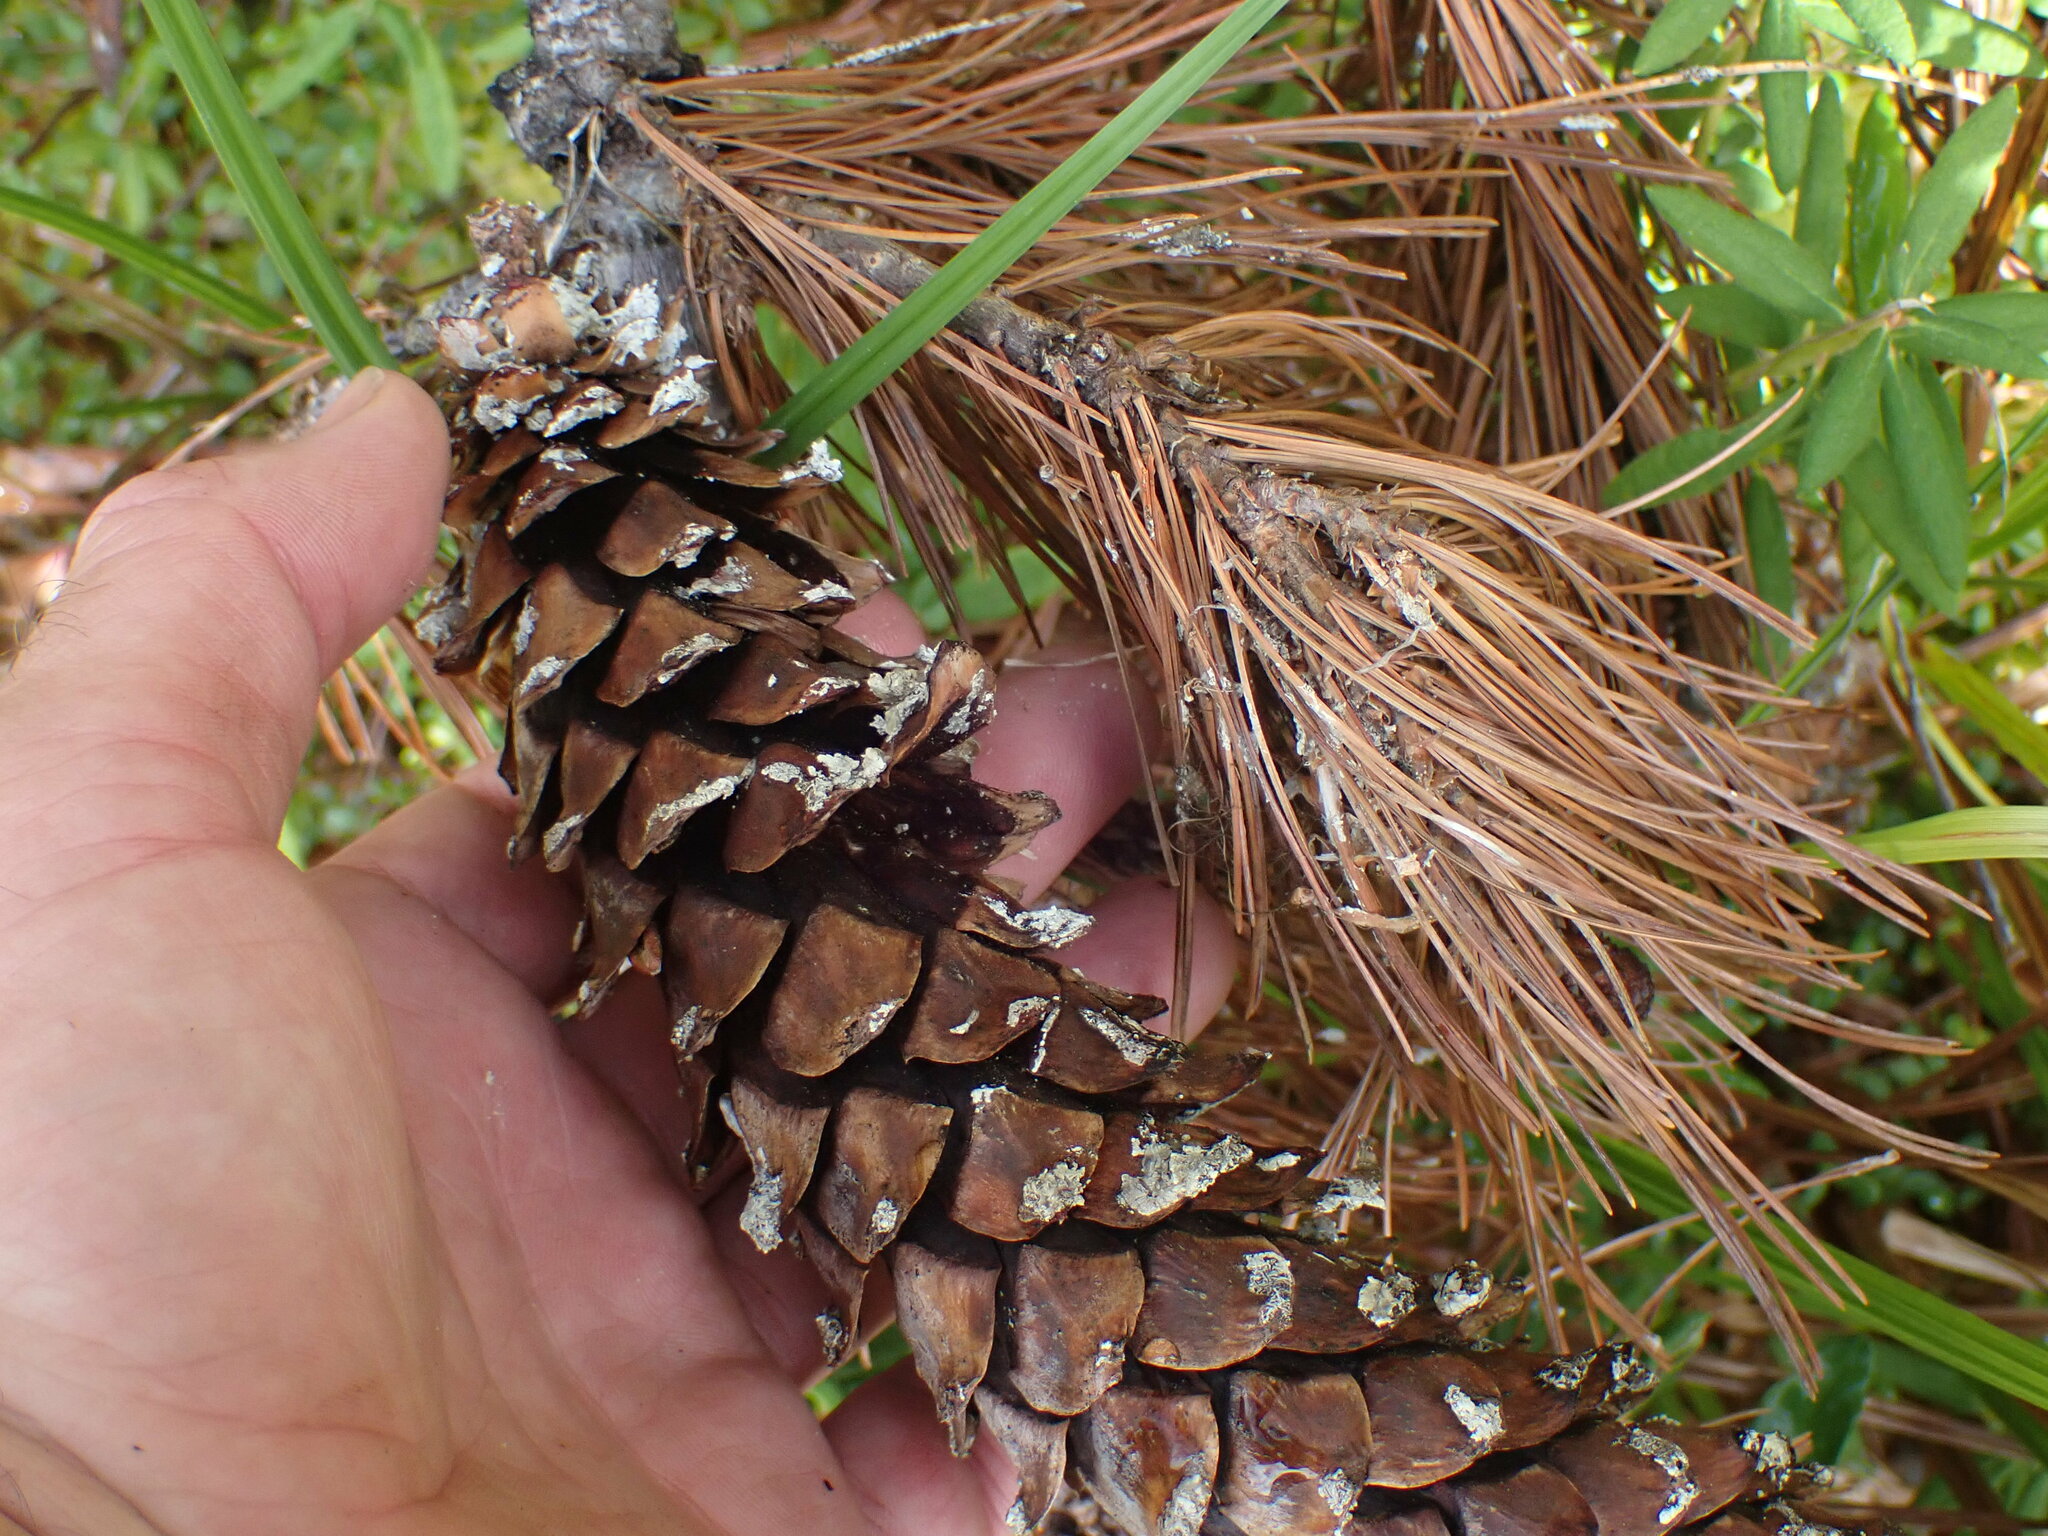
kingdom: Plantae
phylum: Tracheophyta
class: Pinopsida
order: Pinales
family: Pinaceae
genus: Pinus
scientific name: Pinus monticola
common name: Western white pine
